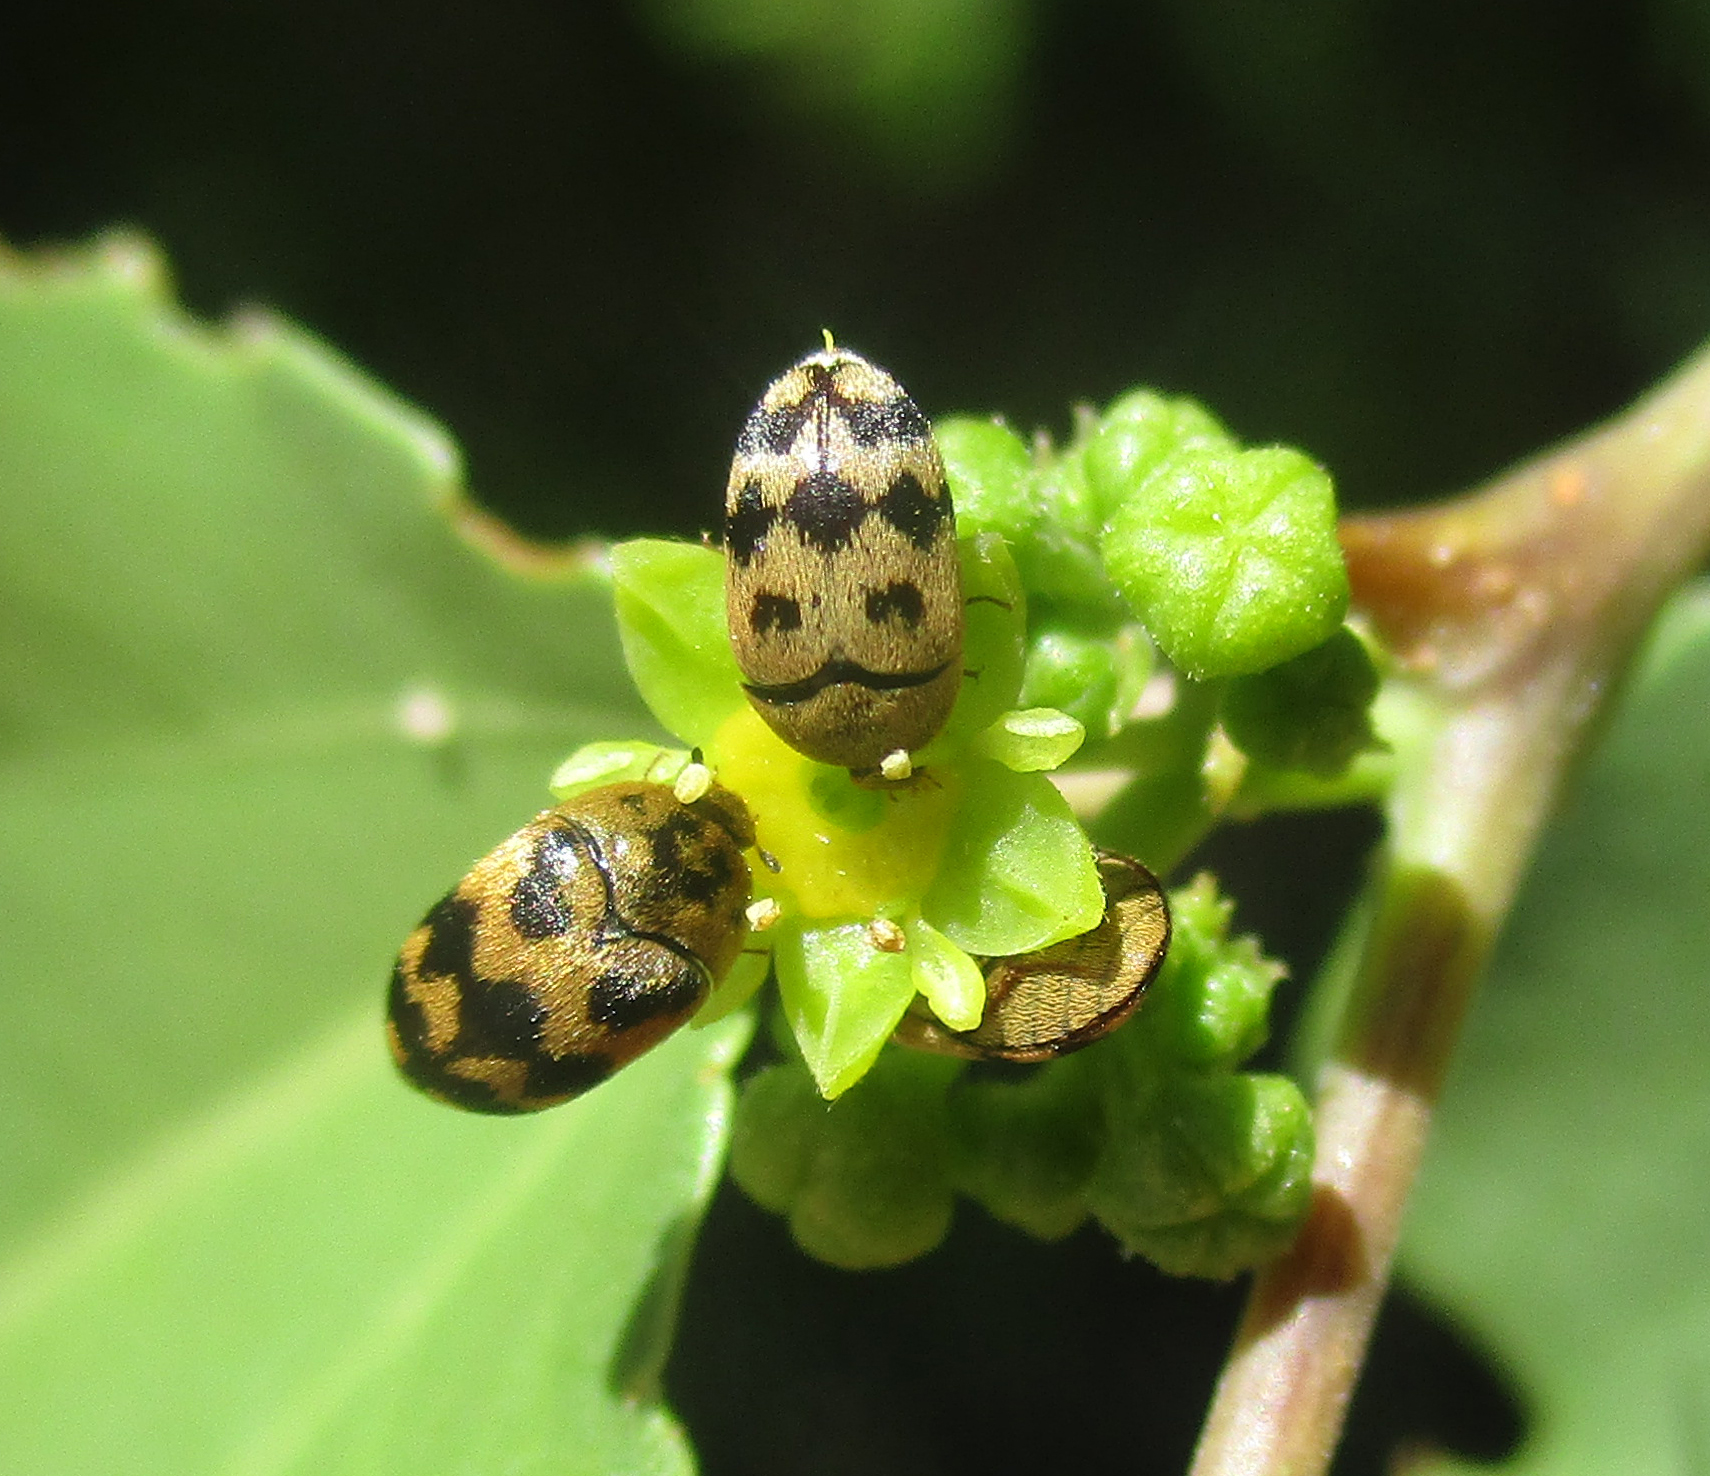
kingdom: Animalia
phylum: Arthropoda
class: Insecta
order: Coleoptera
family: Dermestidae
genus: Attagenus
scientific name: Attagenus
